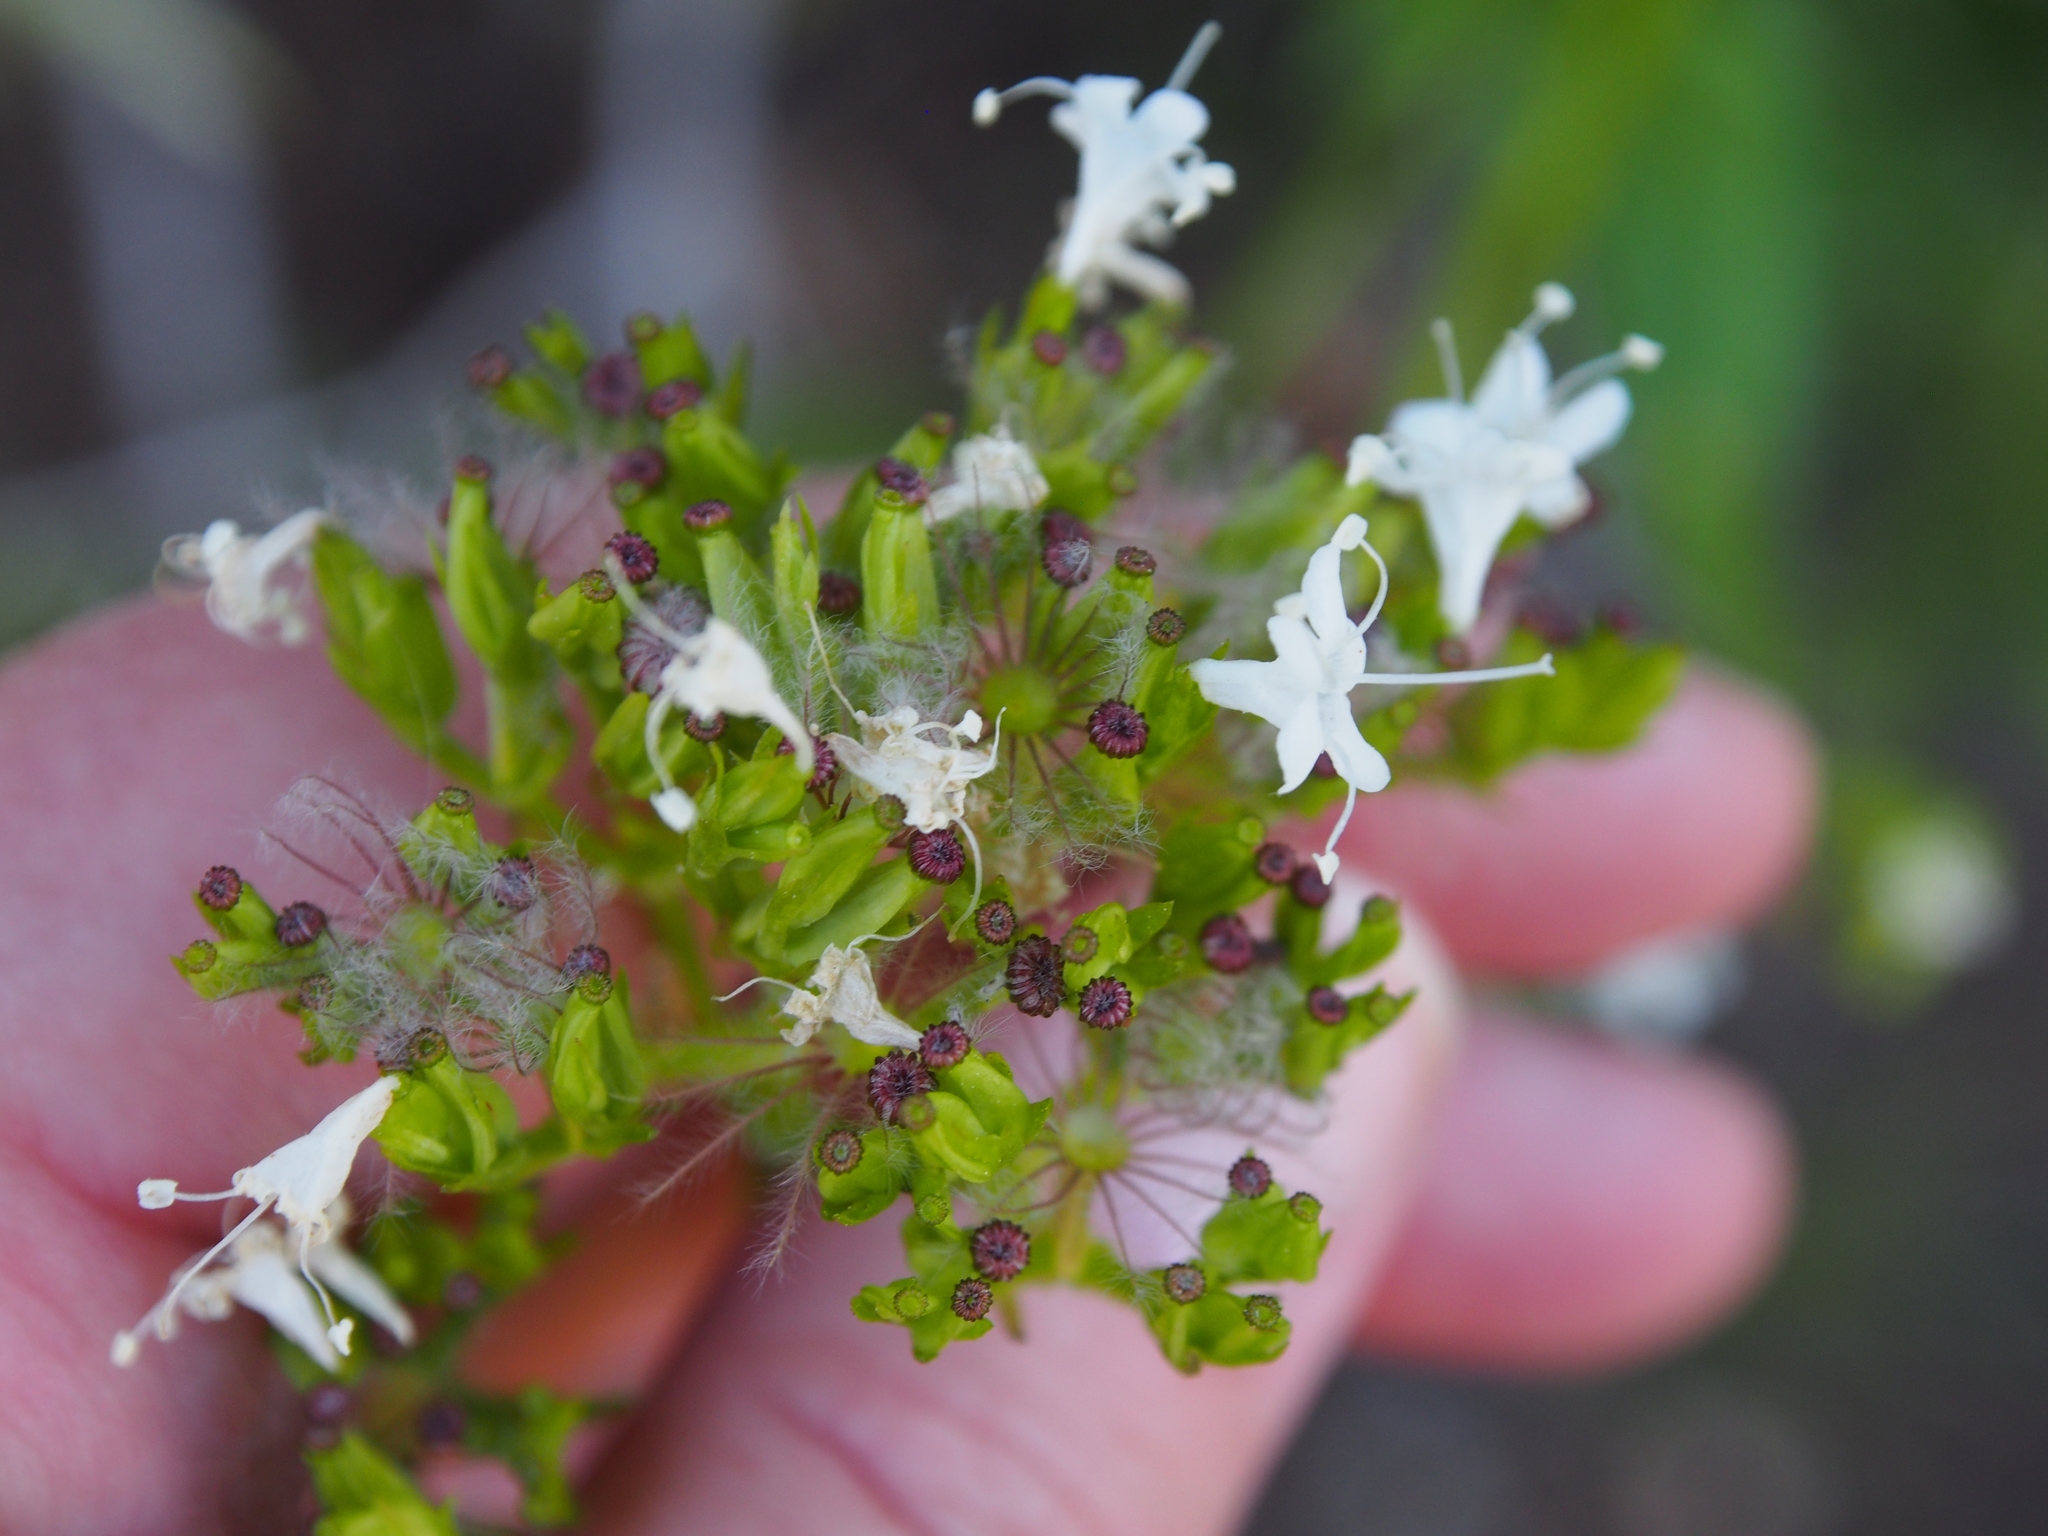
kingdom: Plantae
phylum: Tracheophyta
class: Magnoliopsida
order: Dipsacales
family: Caprifoliaceae
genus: Valeriana
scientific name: Valeriana sitchensis
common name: Pacific valerian
